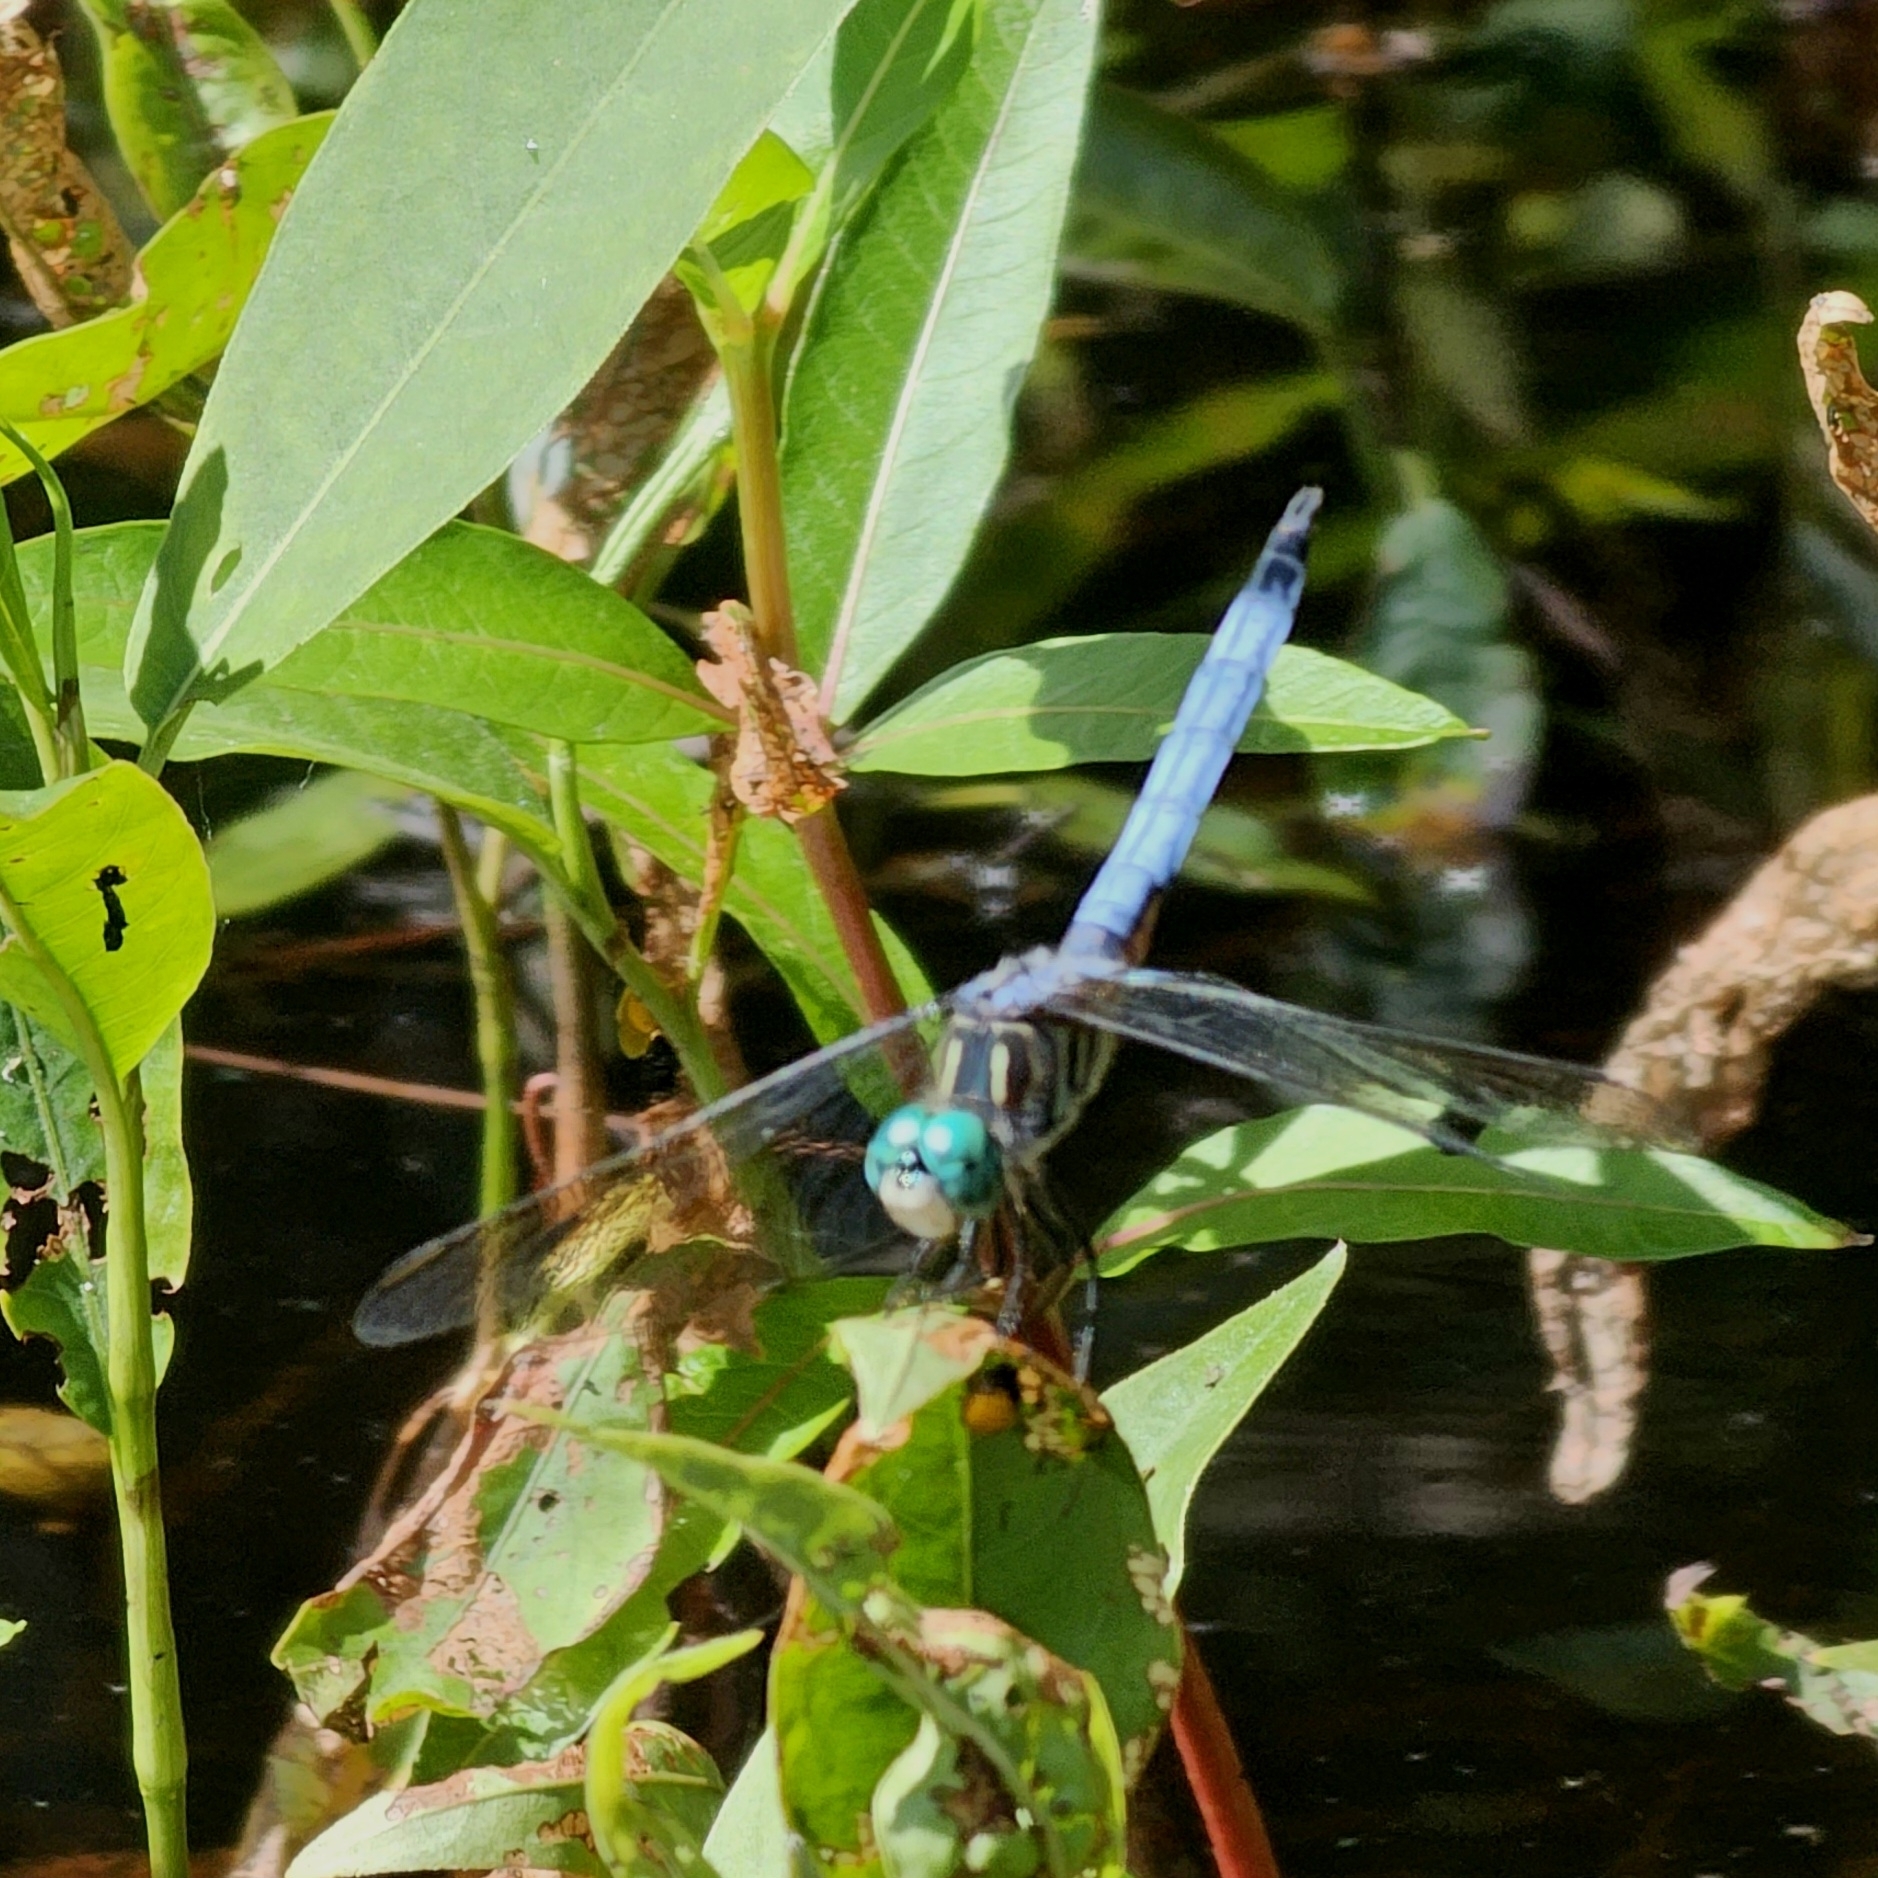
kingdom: Animalia
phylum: Arthropoda
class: Insecta
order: Odonata
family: Libellulidae
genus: Pachydiplax
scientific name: Pachydiplax longipennis
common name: Blue dasher
